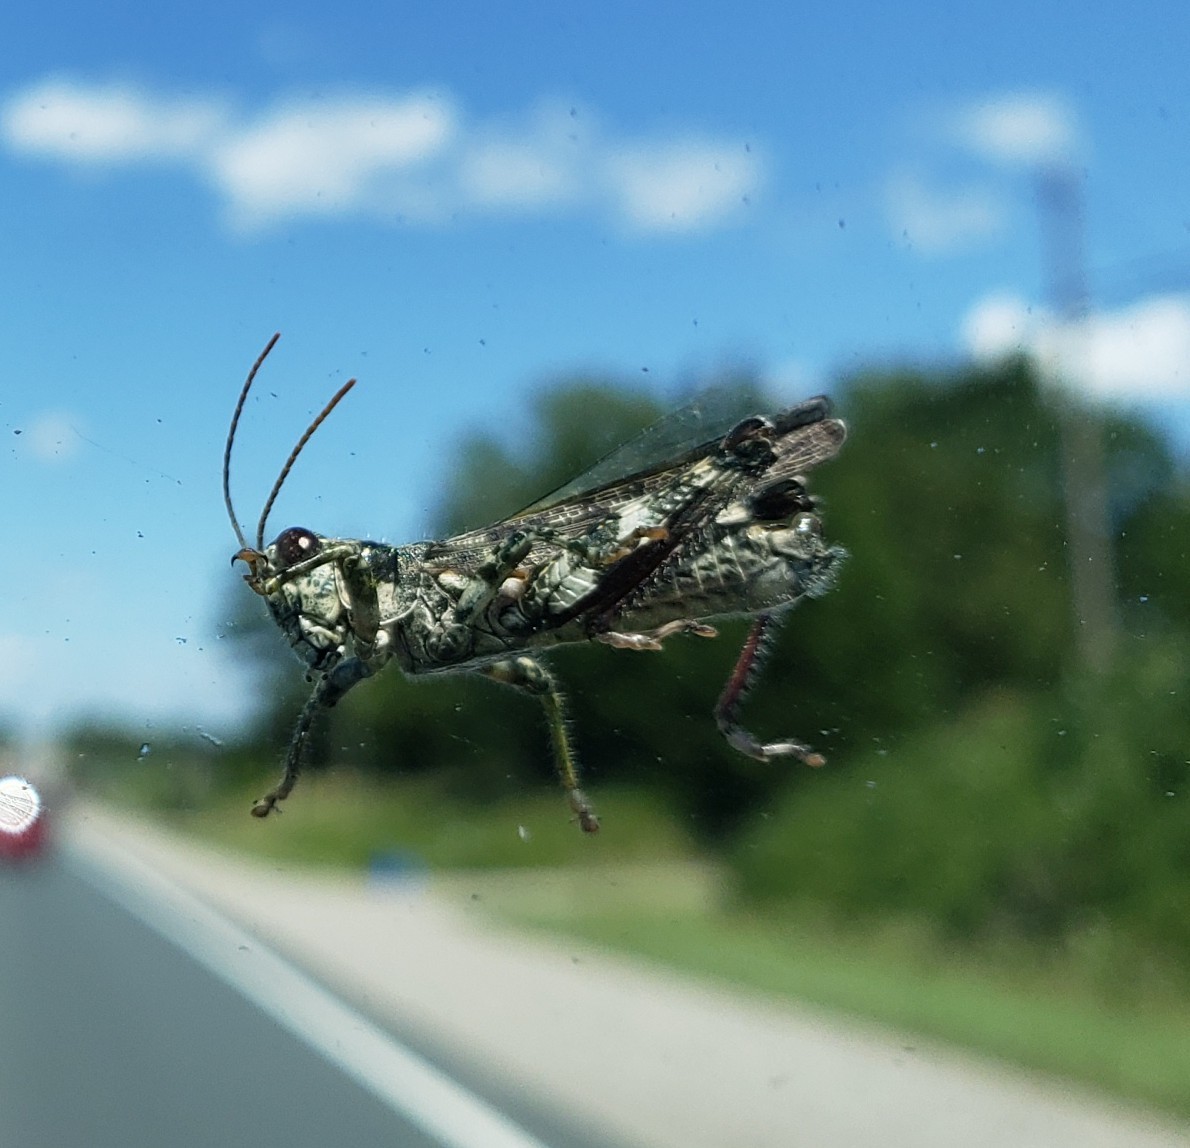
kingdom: Animalia
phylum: Arthropoda
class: Insecta
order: Orthoptera
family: Acrididae
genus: Melanoplus
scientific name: Melanoplus punctulatus
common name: Pine-tree spur-throat grasshopper
